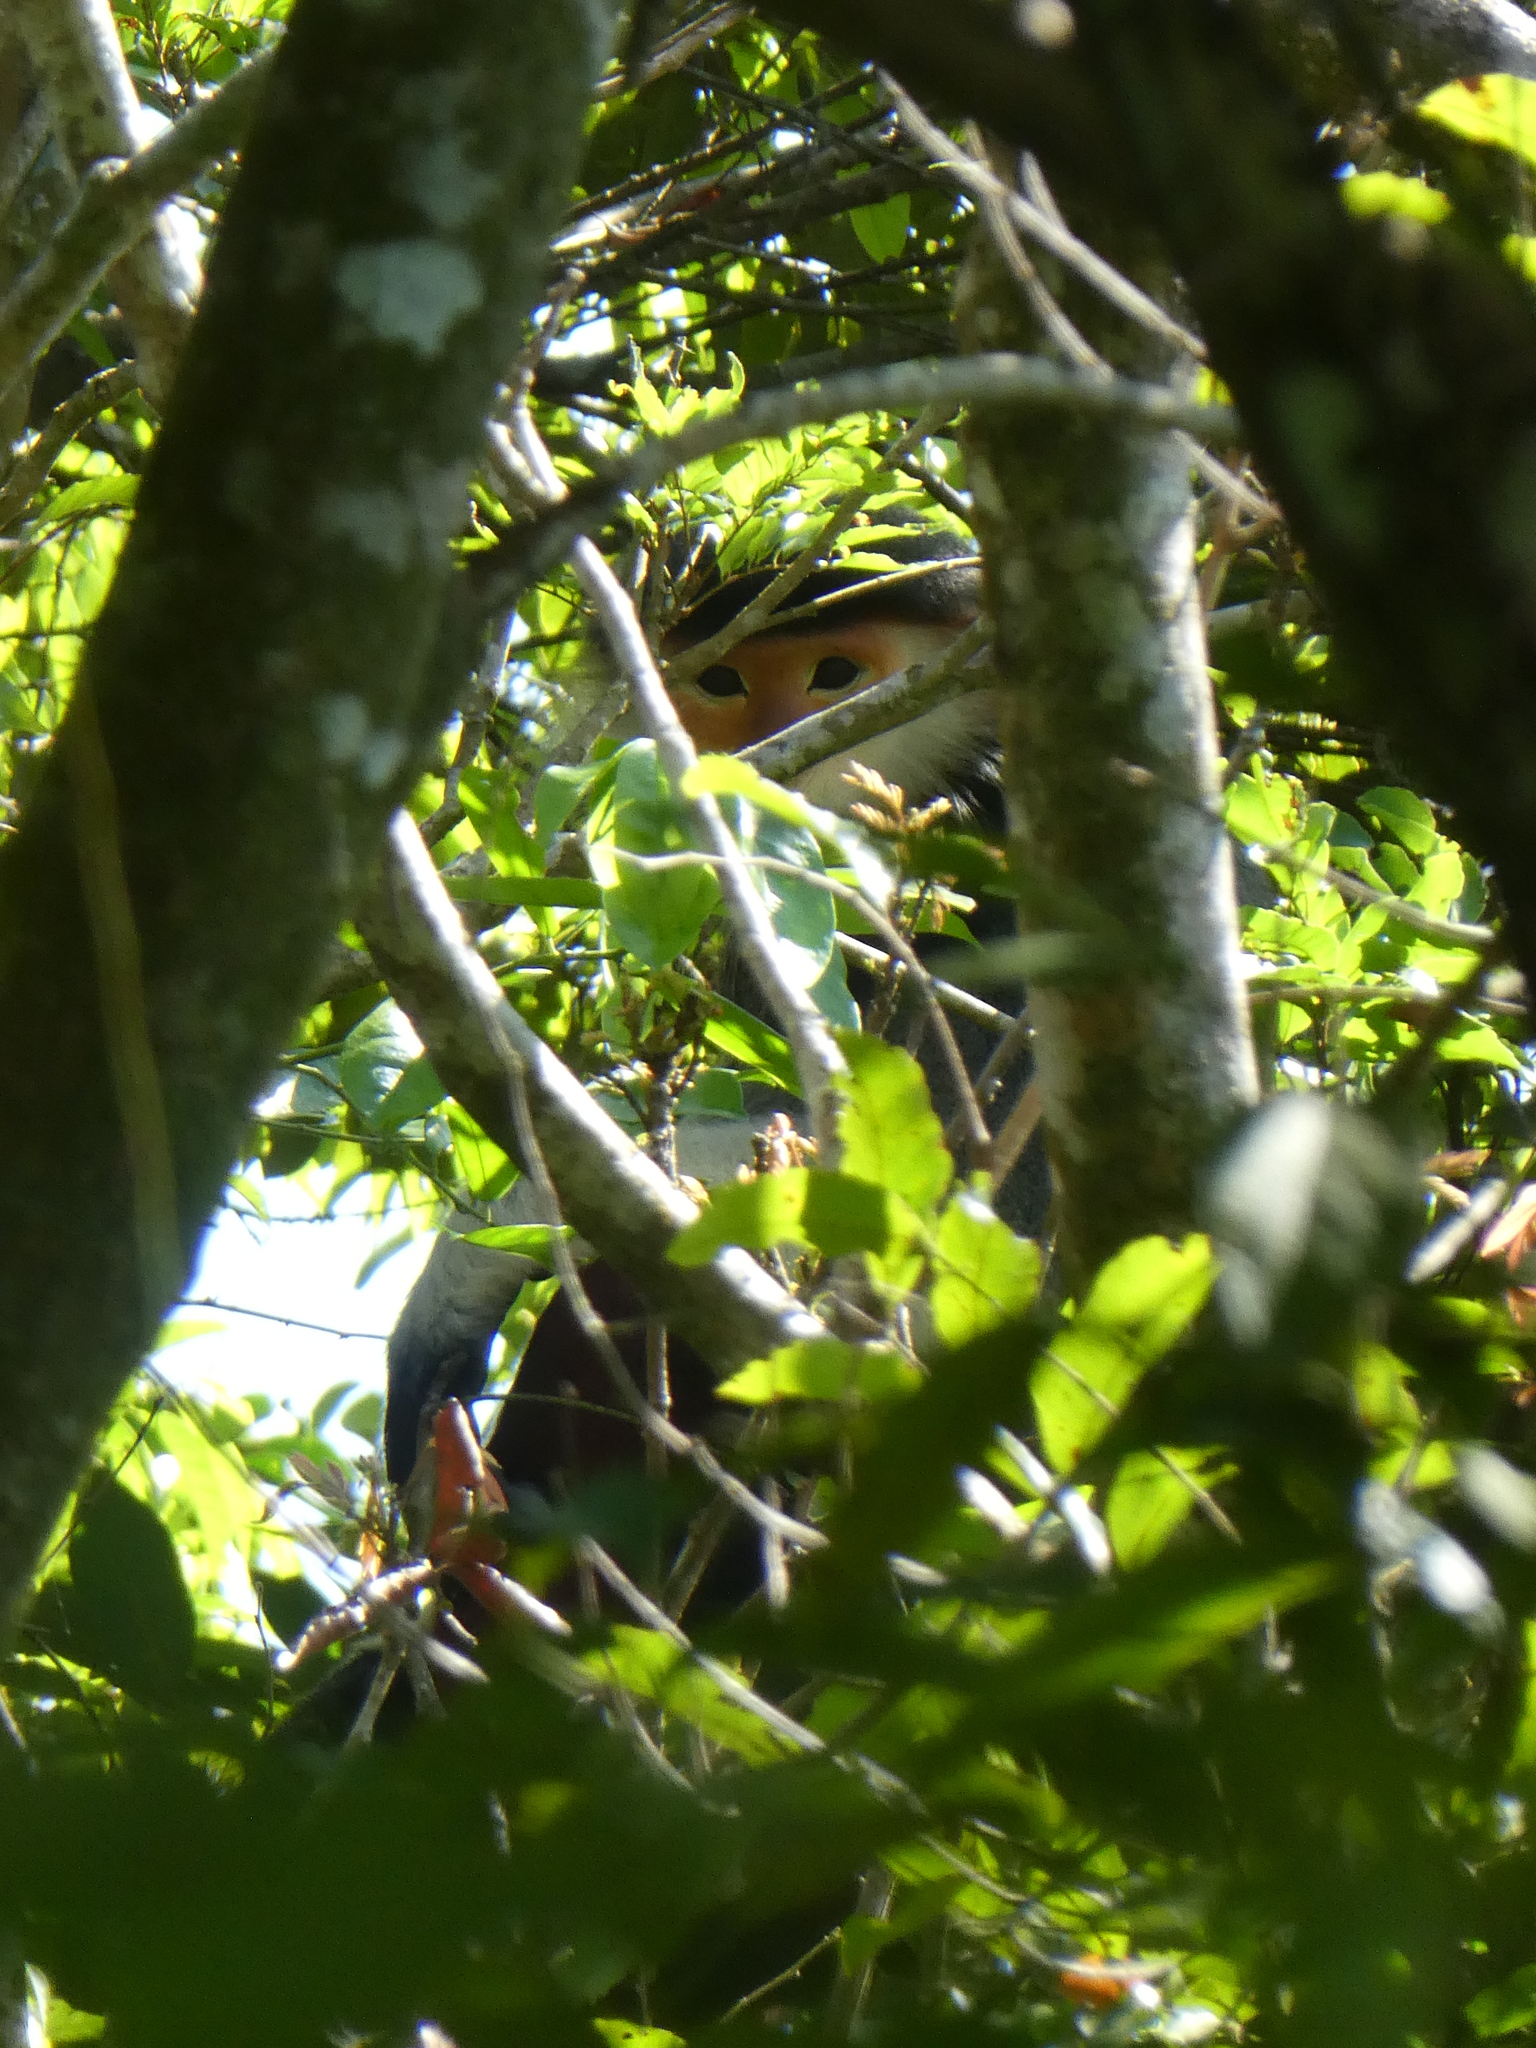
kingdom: Animalia
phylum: Chordata
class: Mammalia
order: Primates
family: Cercopithecidae
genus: Pygathrix
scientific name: Pygathrix nemaeus
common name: Red-shanked douc
